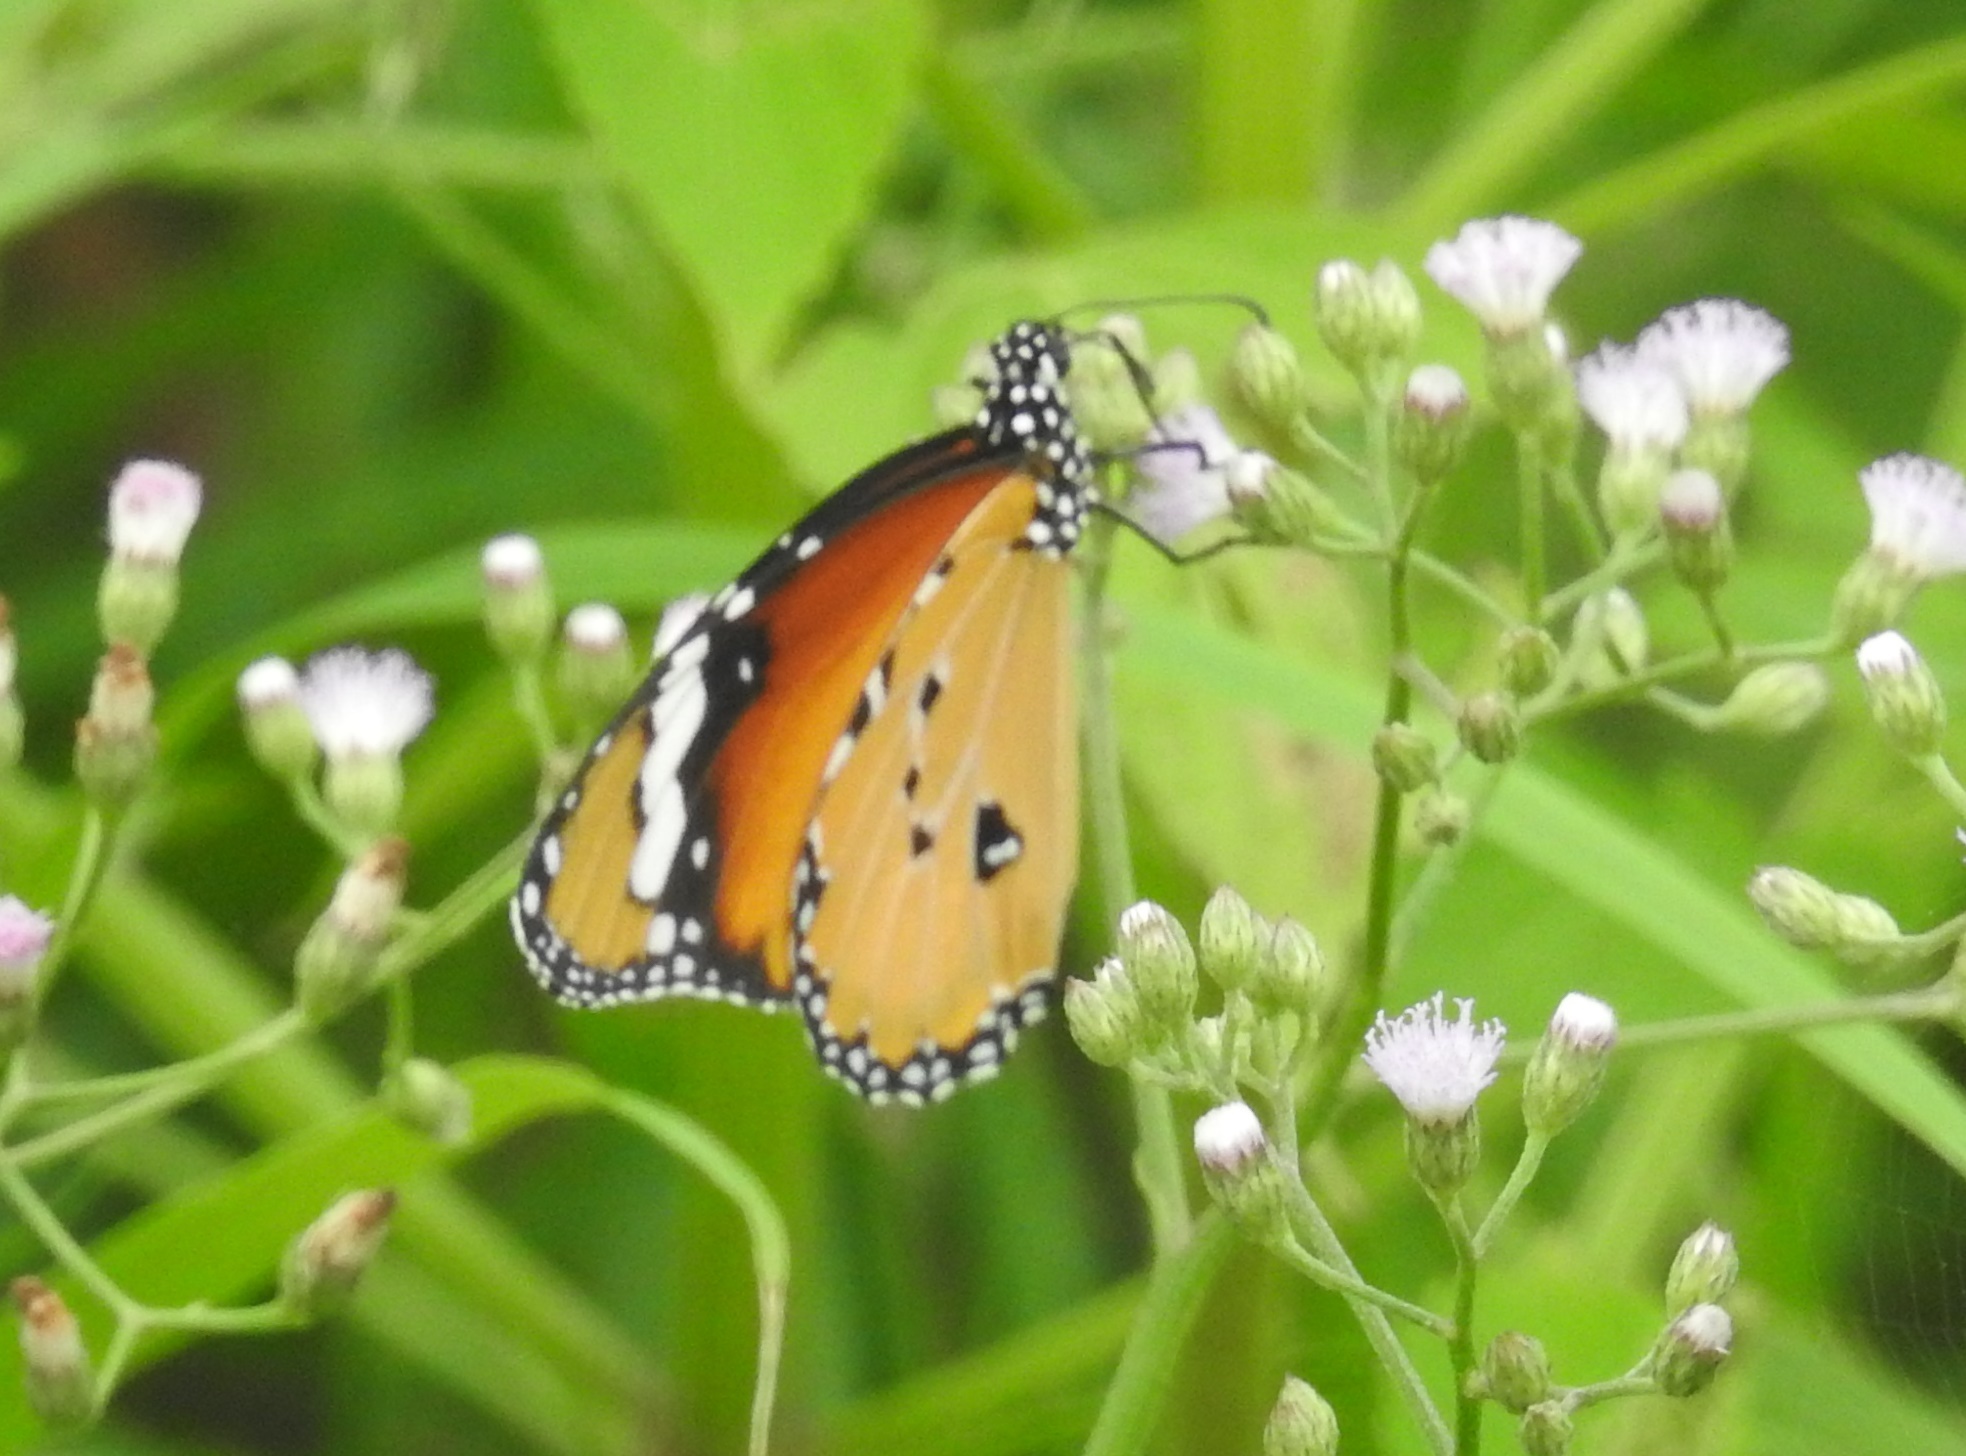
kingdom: Animalia
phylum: Arthropoda
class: Insecta
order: Lepidoptera
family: Nymphalidae
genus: Danaus
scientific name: Danaus chrysippus
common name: Plain tiger
